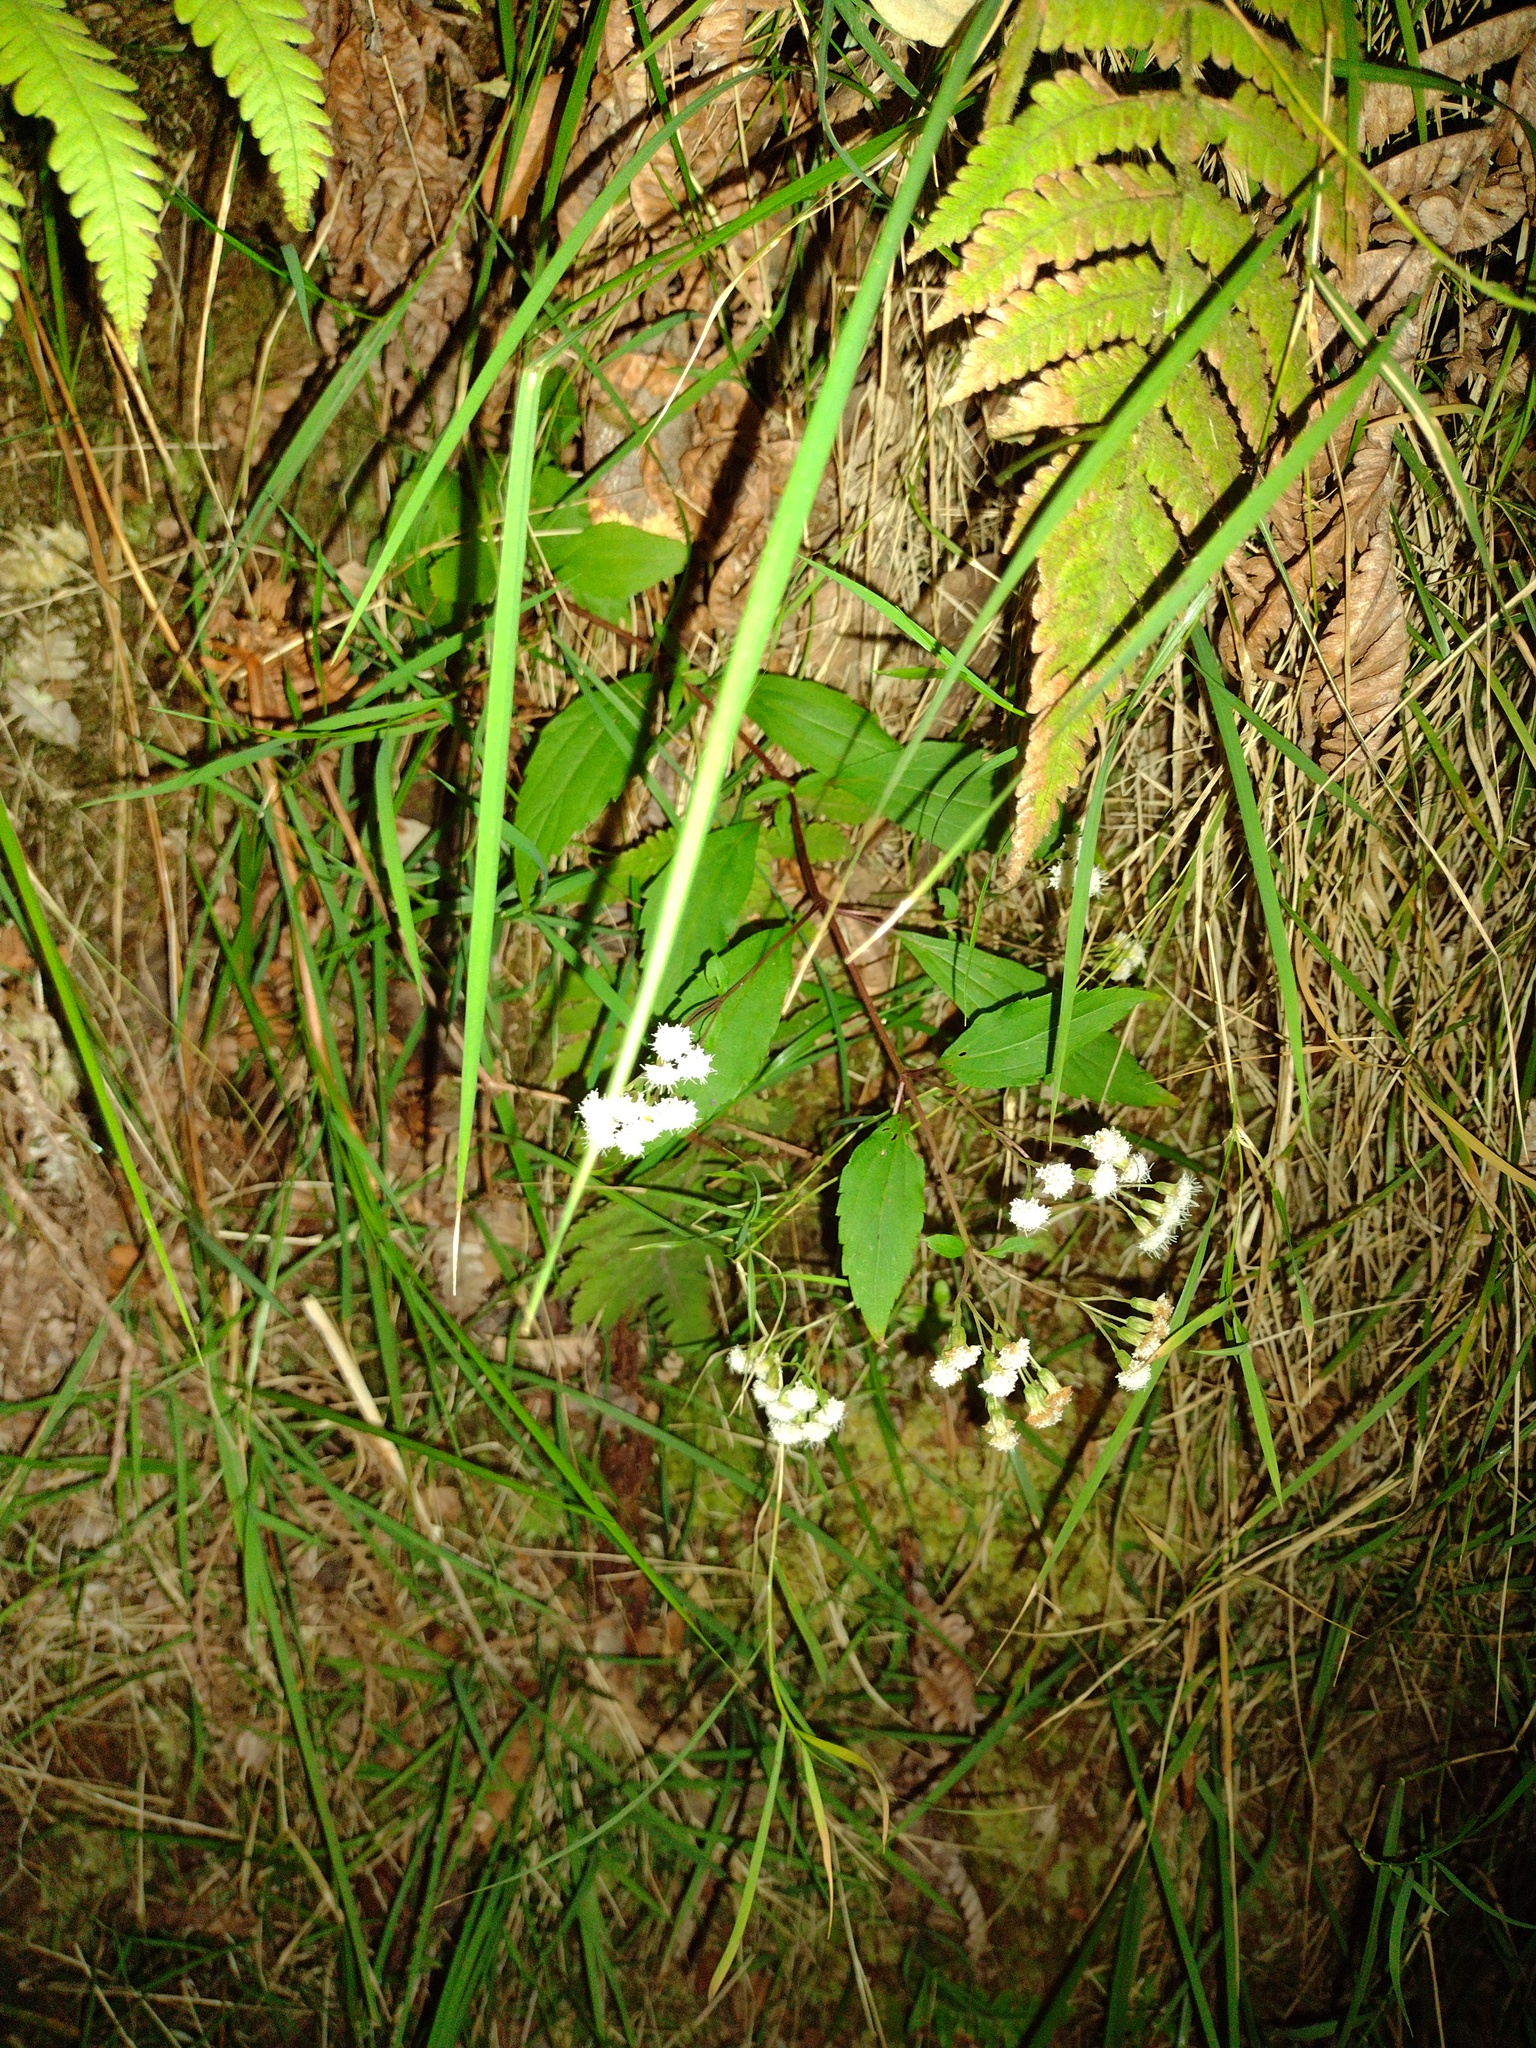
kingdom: Plantae
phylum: Tracheophyta
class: Magnoliopsida
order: Asterales
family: Asteraceae
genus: Ageratina
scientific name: Ageratina riparia
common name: Creeping croftonweed
